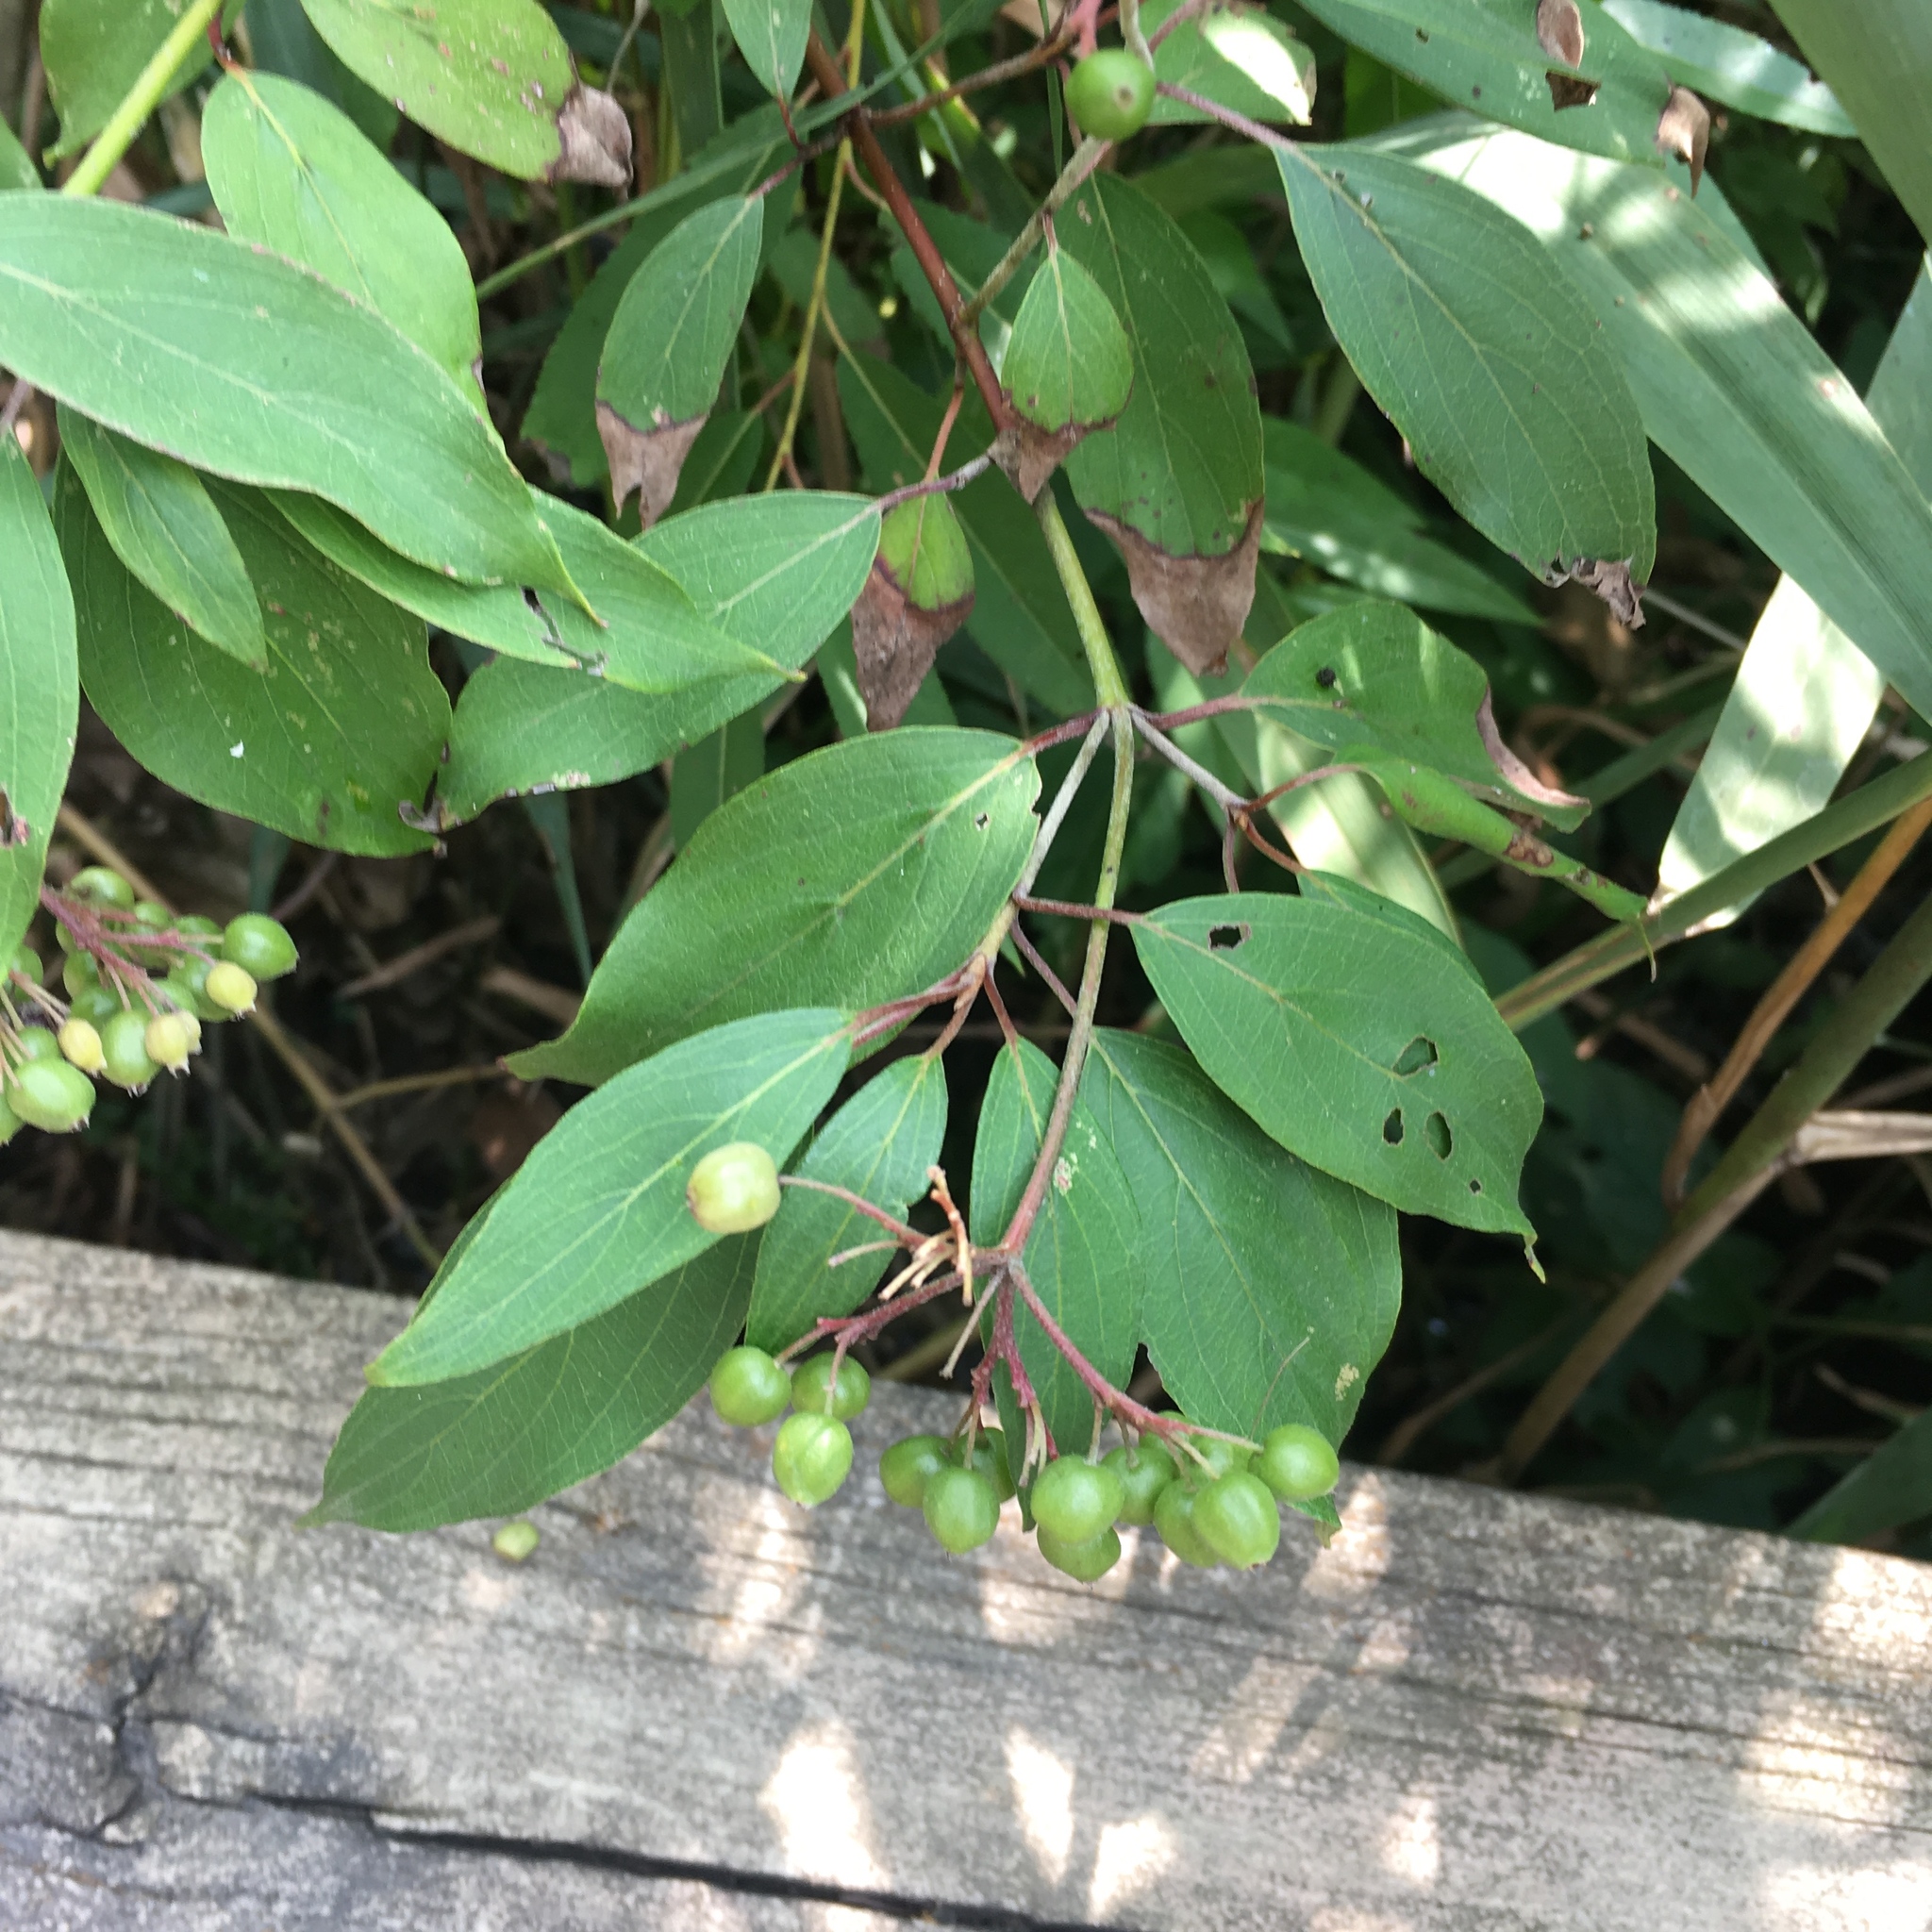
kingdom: Plantae
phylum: Tracheophyta
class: Magnoliopsida
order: Cornales
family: Cornaceae
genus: Cornus
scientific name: Cornus amomum
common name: Silky dogwood
